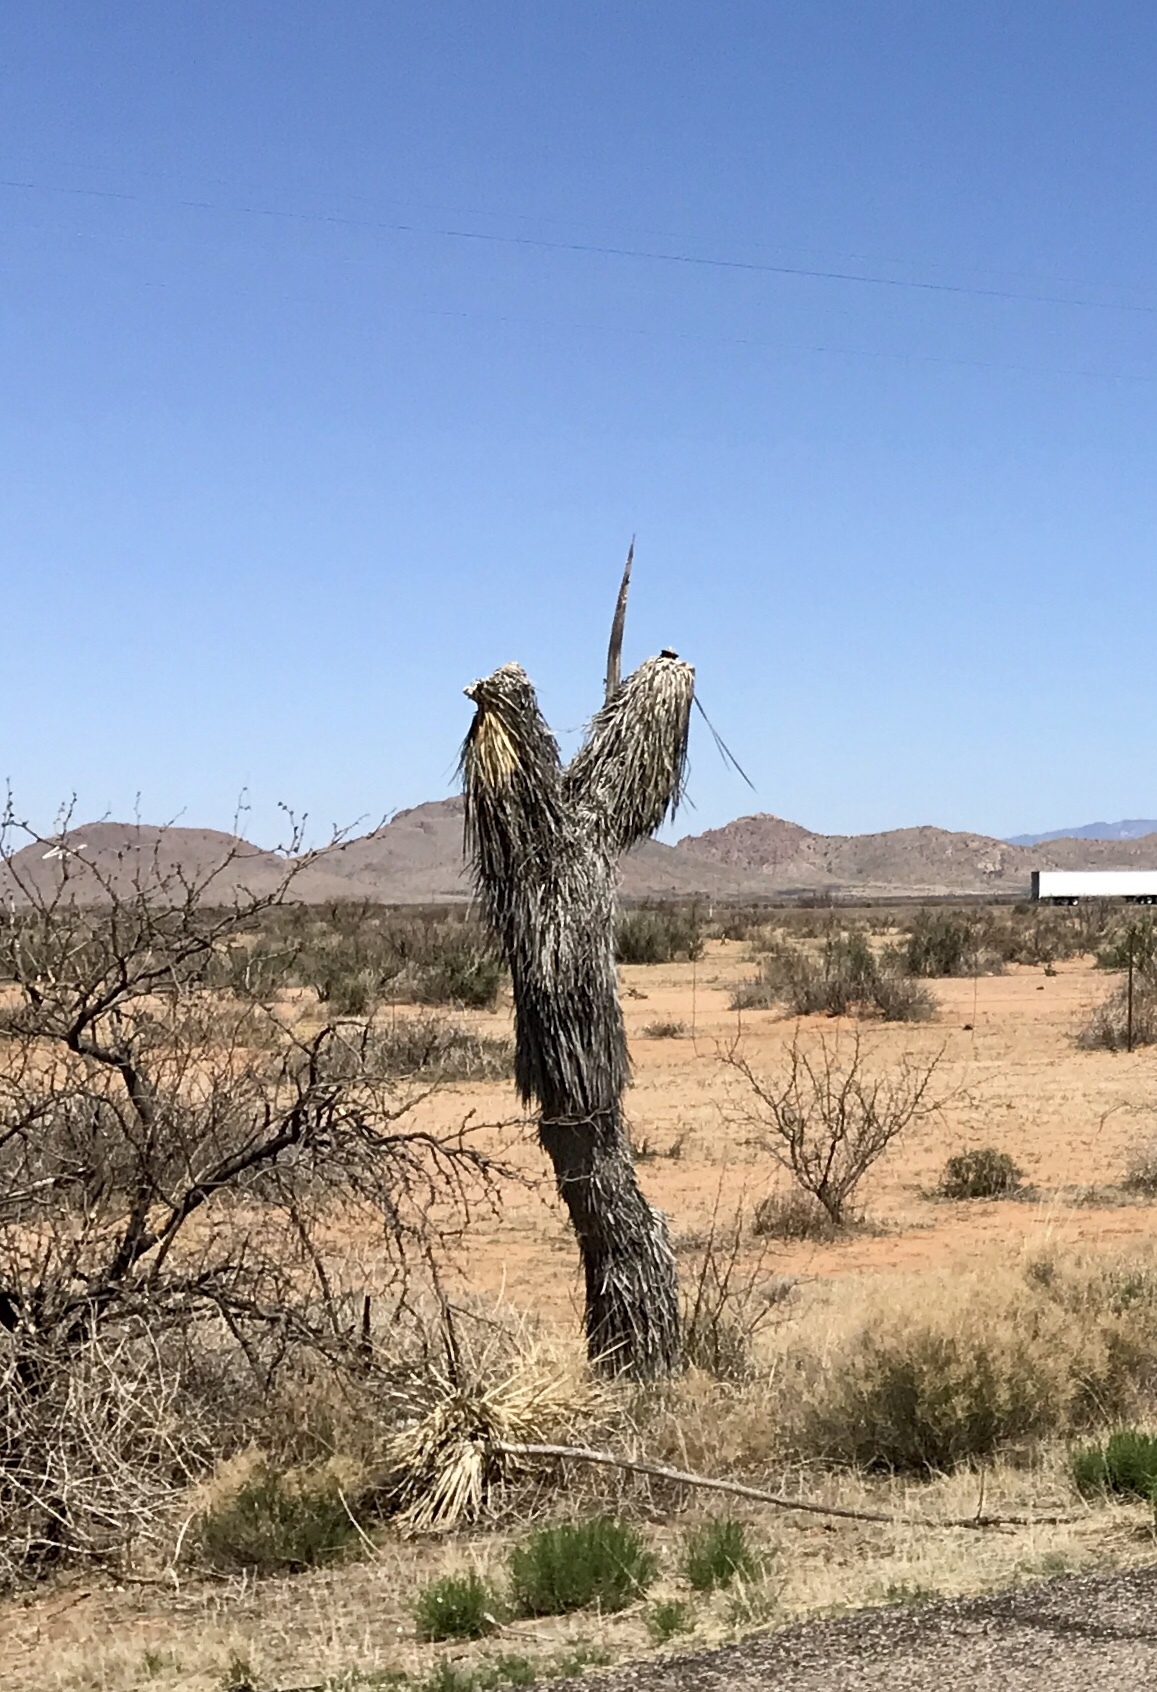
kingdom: Plantae
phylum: Tracheophyta
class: Liliopsida
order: Asparagales
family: Asparagaceae
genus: Yucca
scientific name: Yucca elata
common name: Palmella
